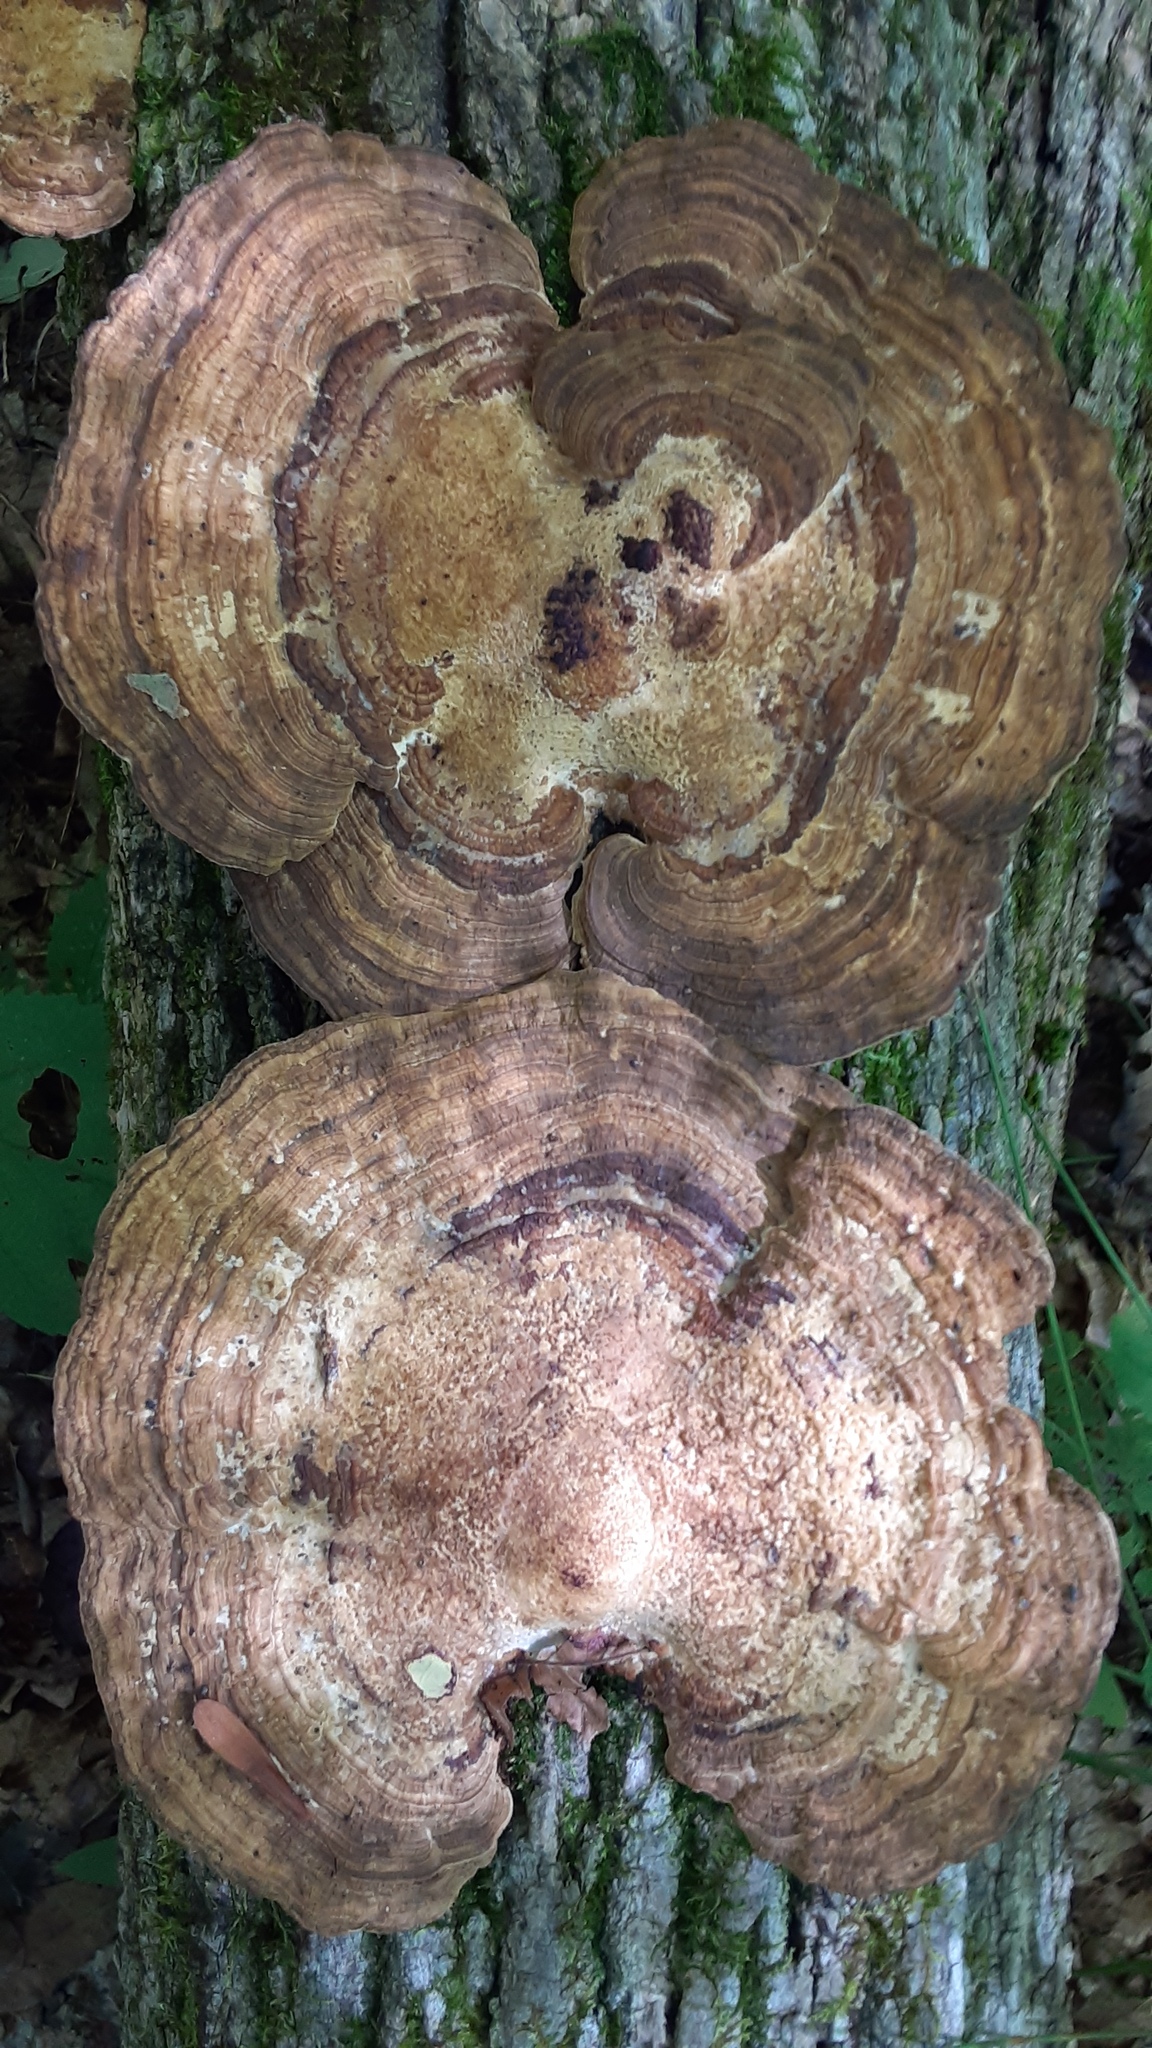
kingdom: Fungi
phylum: Basidiomycota
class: Agaricomycetes
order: Polyporales
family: Polyporaceae
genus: Daedaleopsis
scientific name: Daedaleopsis confragosa
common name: Blushing bracket
